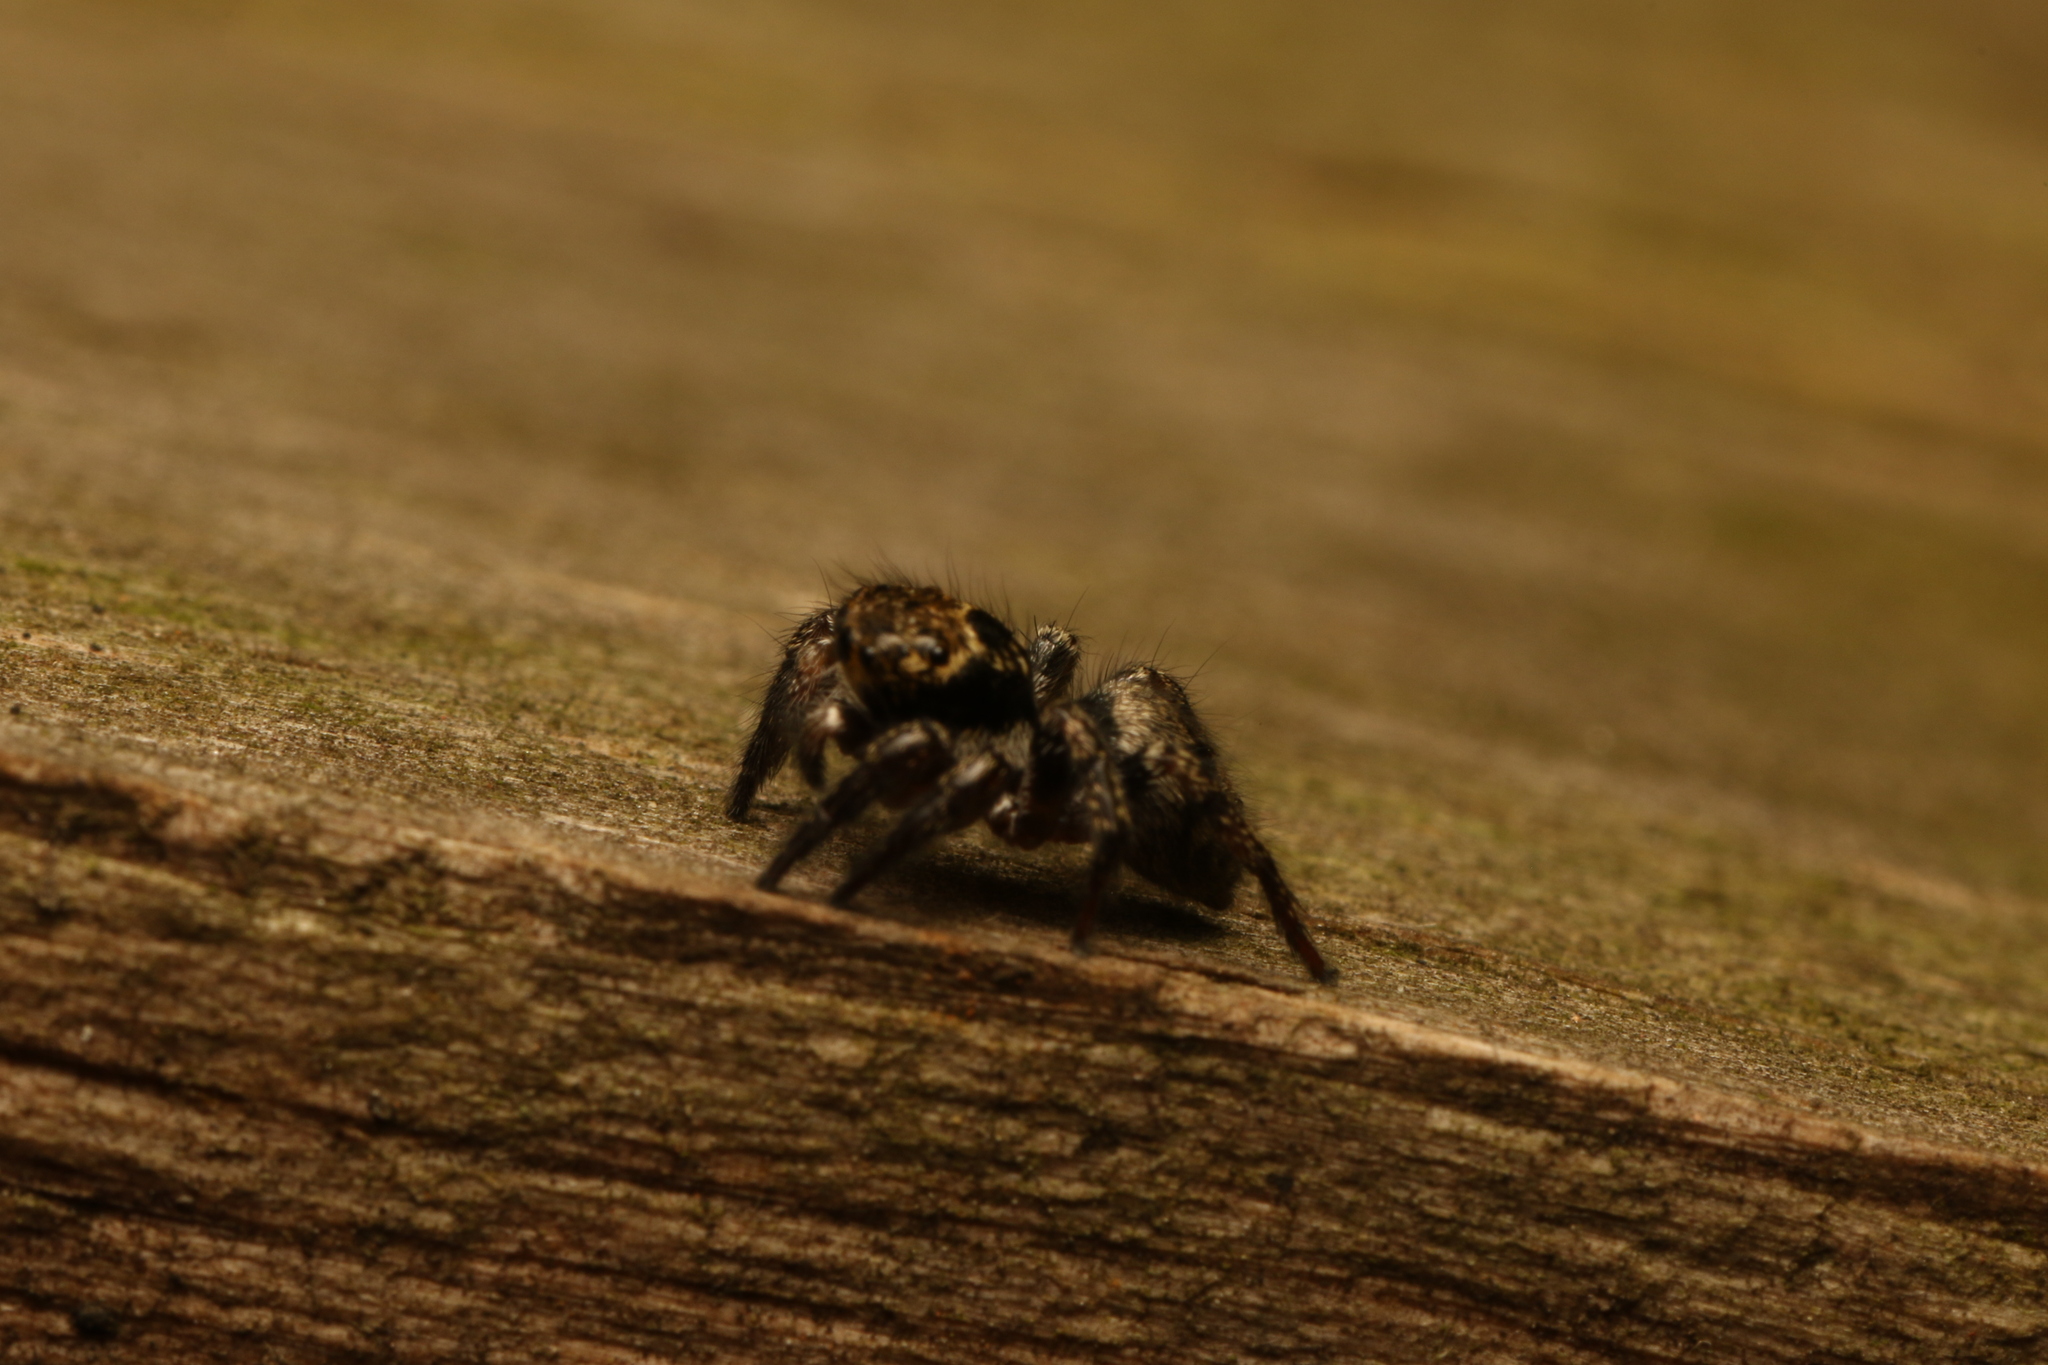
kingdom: Animalia
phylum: Arthropoda
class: Arachnida
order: Araneae
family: Salticidae
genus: Corythalia
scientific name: Corythalia conferta
